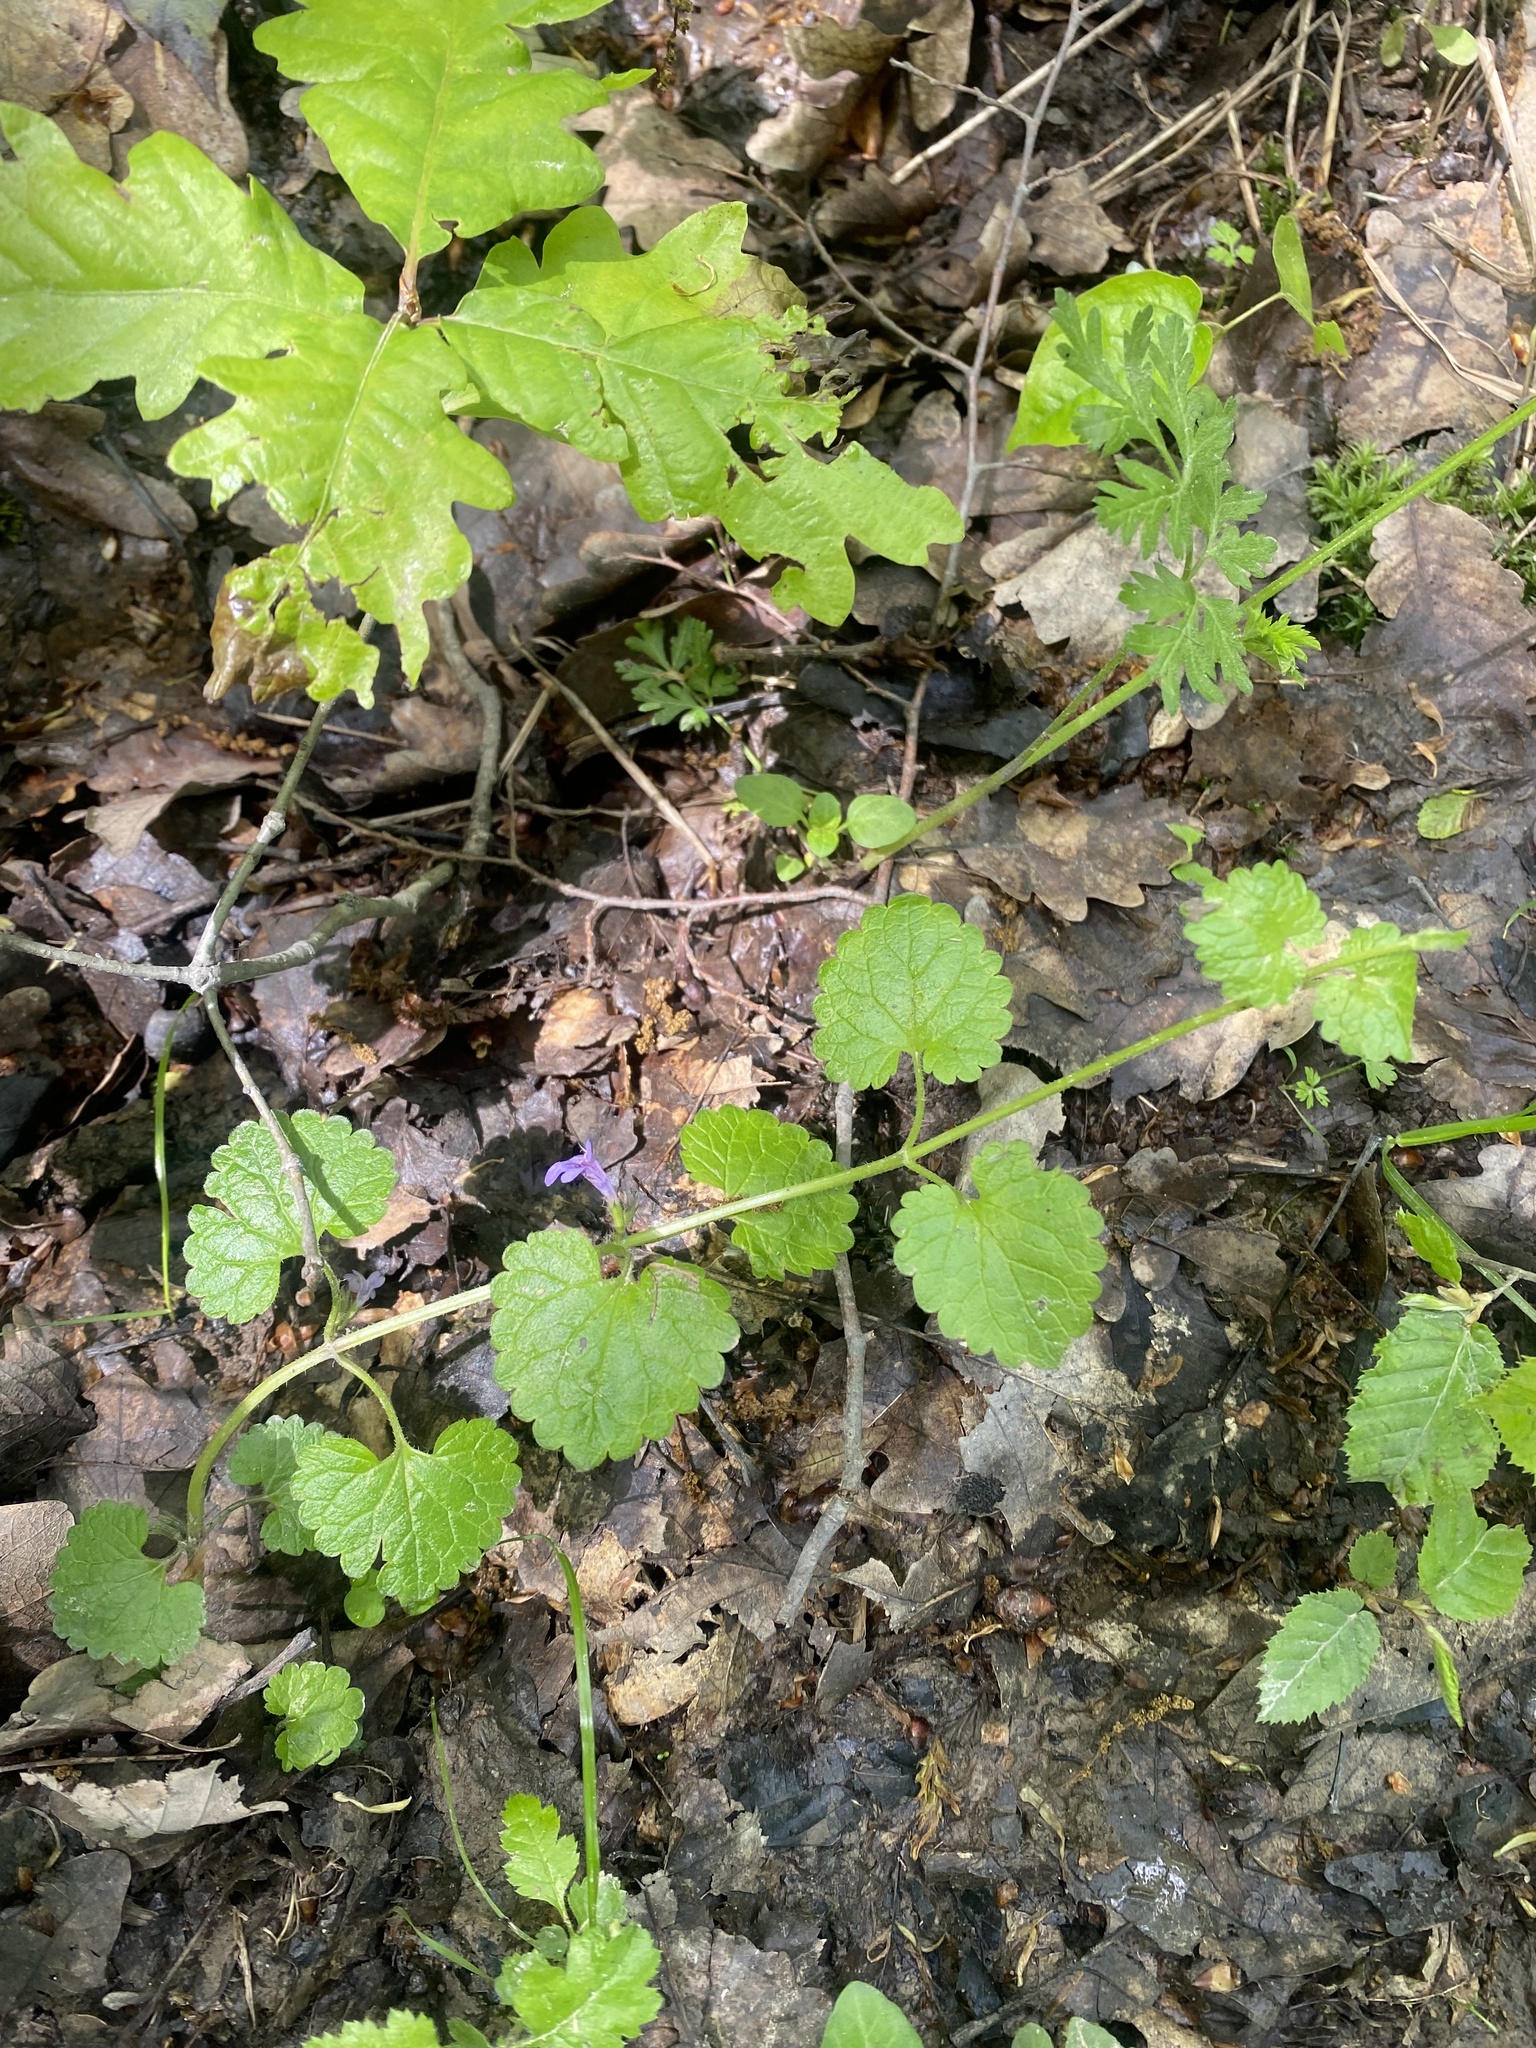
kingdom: Plantae
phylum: Tracheophyta
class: Magnoliopsida
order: Lamiales
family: Lamiaceae
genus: Glechoma
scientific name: Glechoma hederacea
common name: Ground ivy
